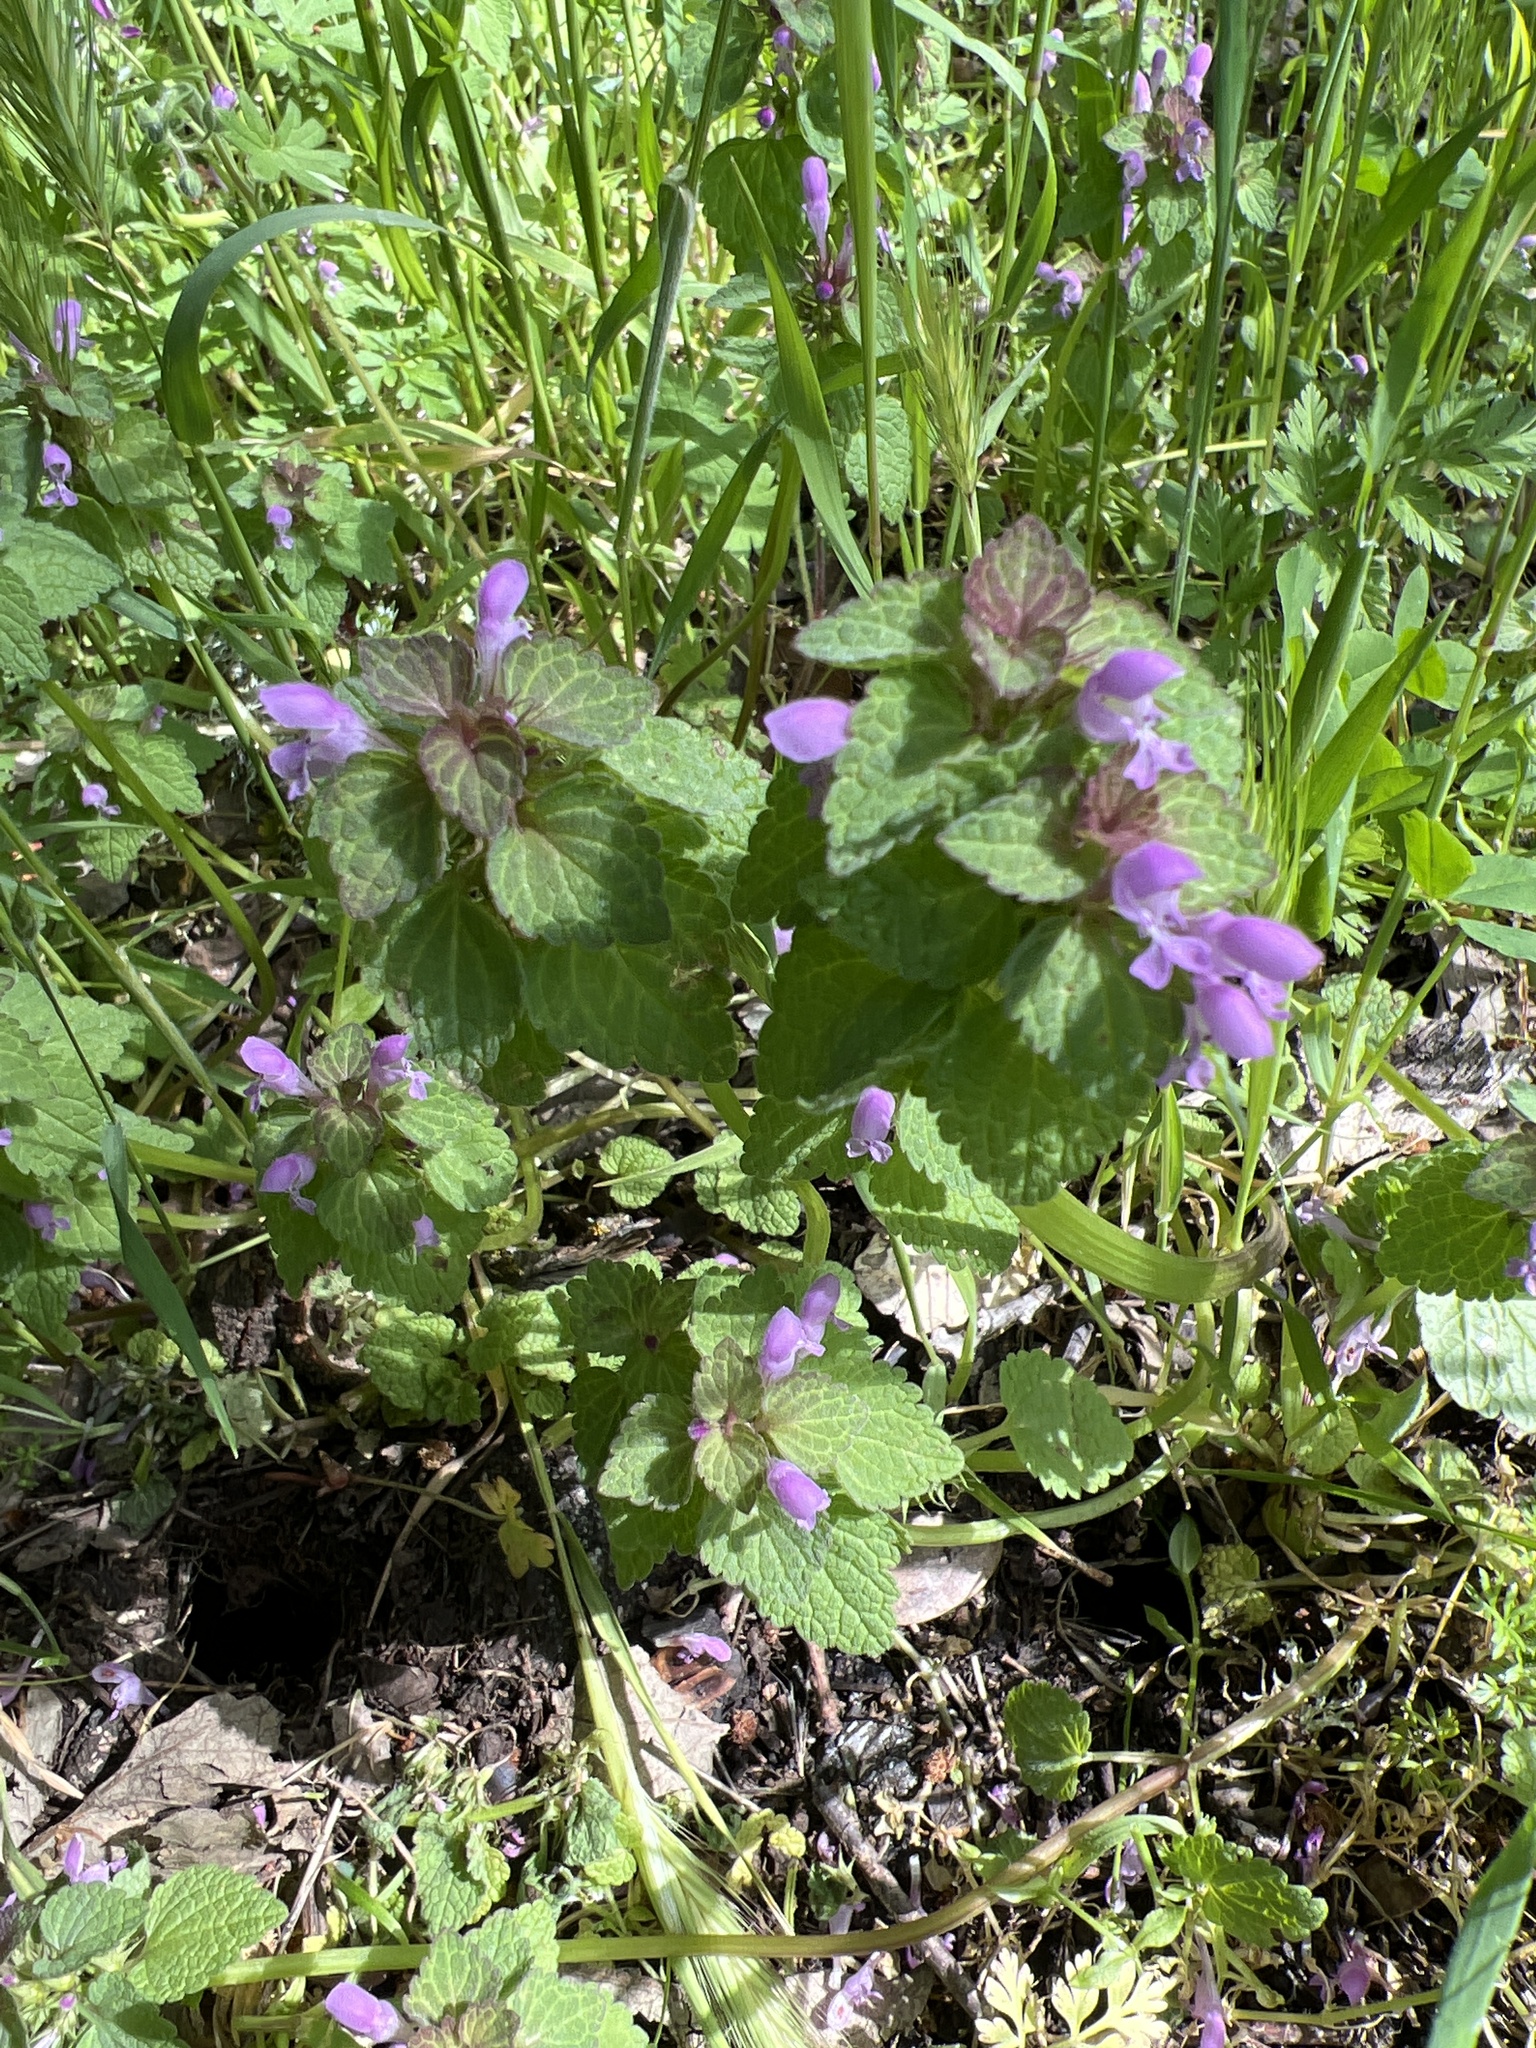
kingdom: Plantae
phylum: Tracheophyta
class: Magnoliopsida
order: Lamiales
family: Lamiaceae
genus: Lamium
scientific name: Lamium purpureum
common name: Red dead-nettle
